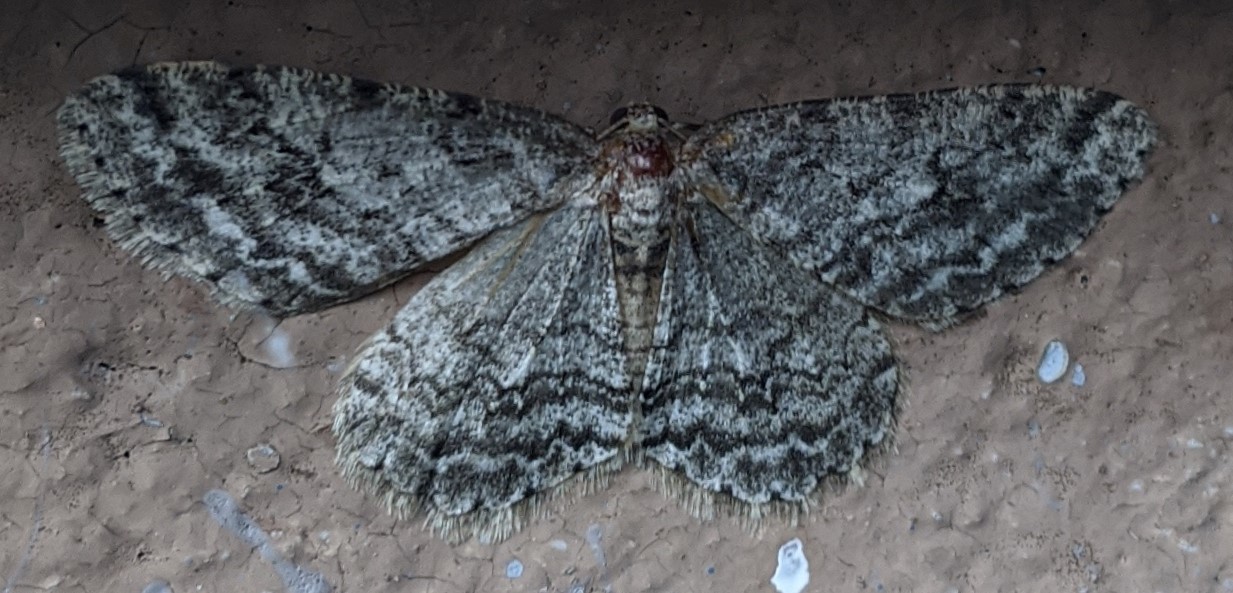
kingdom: Animalia
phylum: Arthropoda
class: Insecta
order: Lepidoptera
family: Geometridae
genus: Ectropis
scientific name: Ectropis crepuscularia
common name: Engrailed
